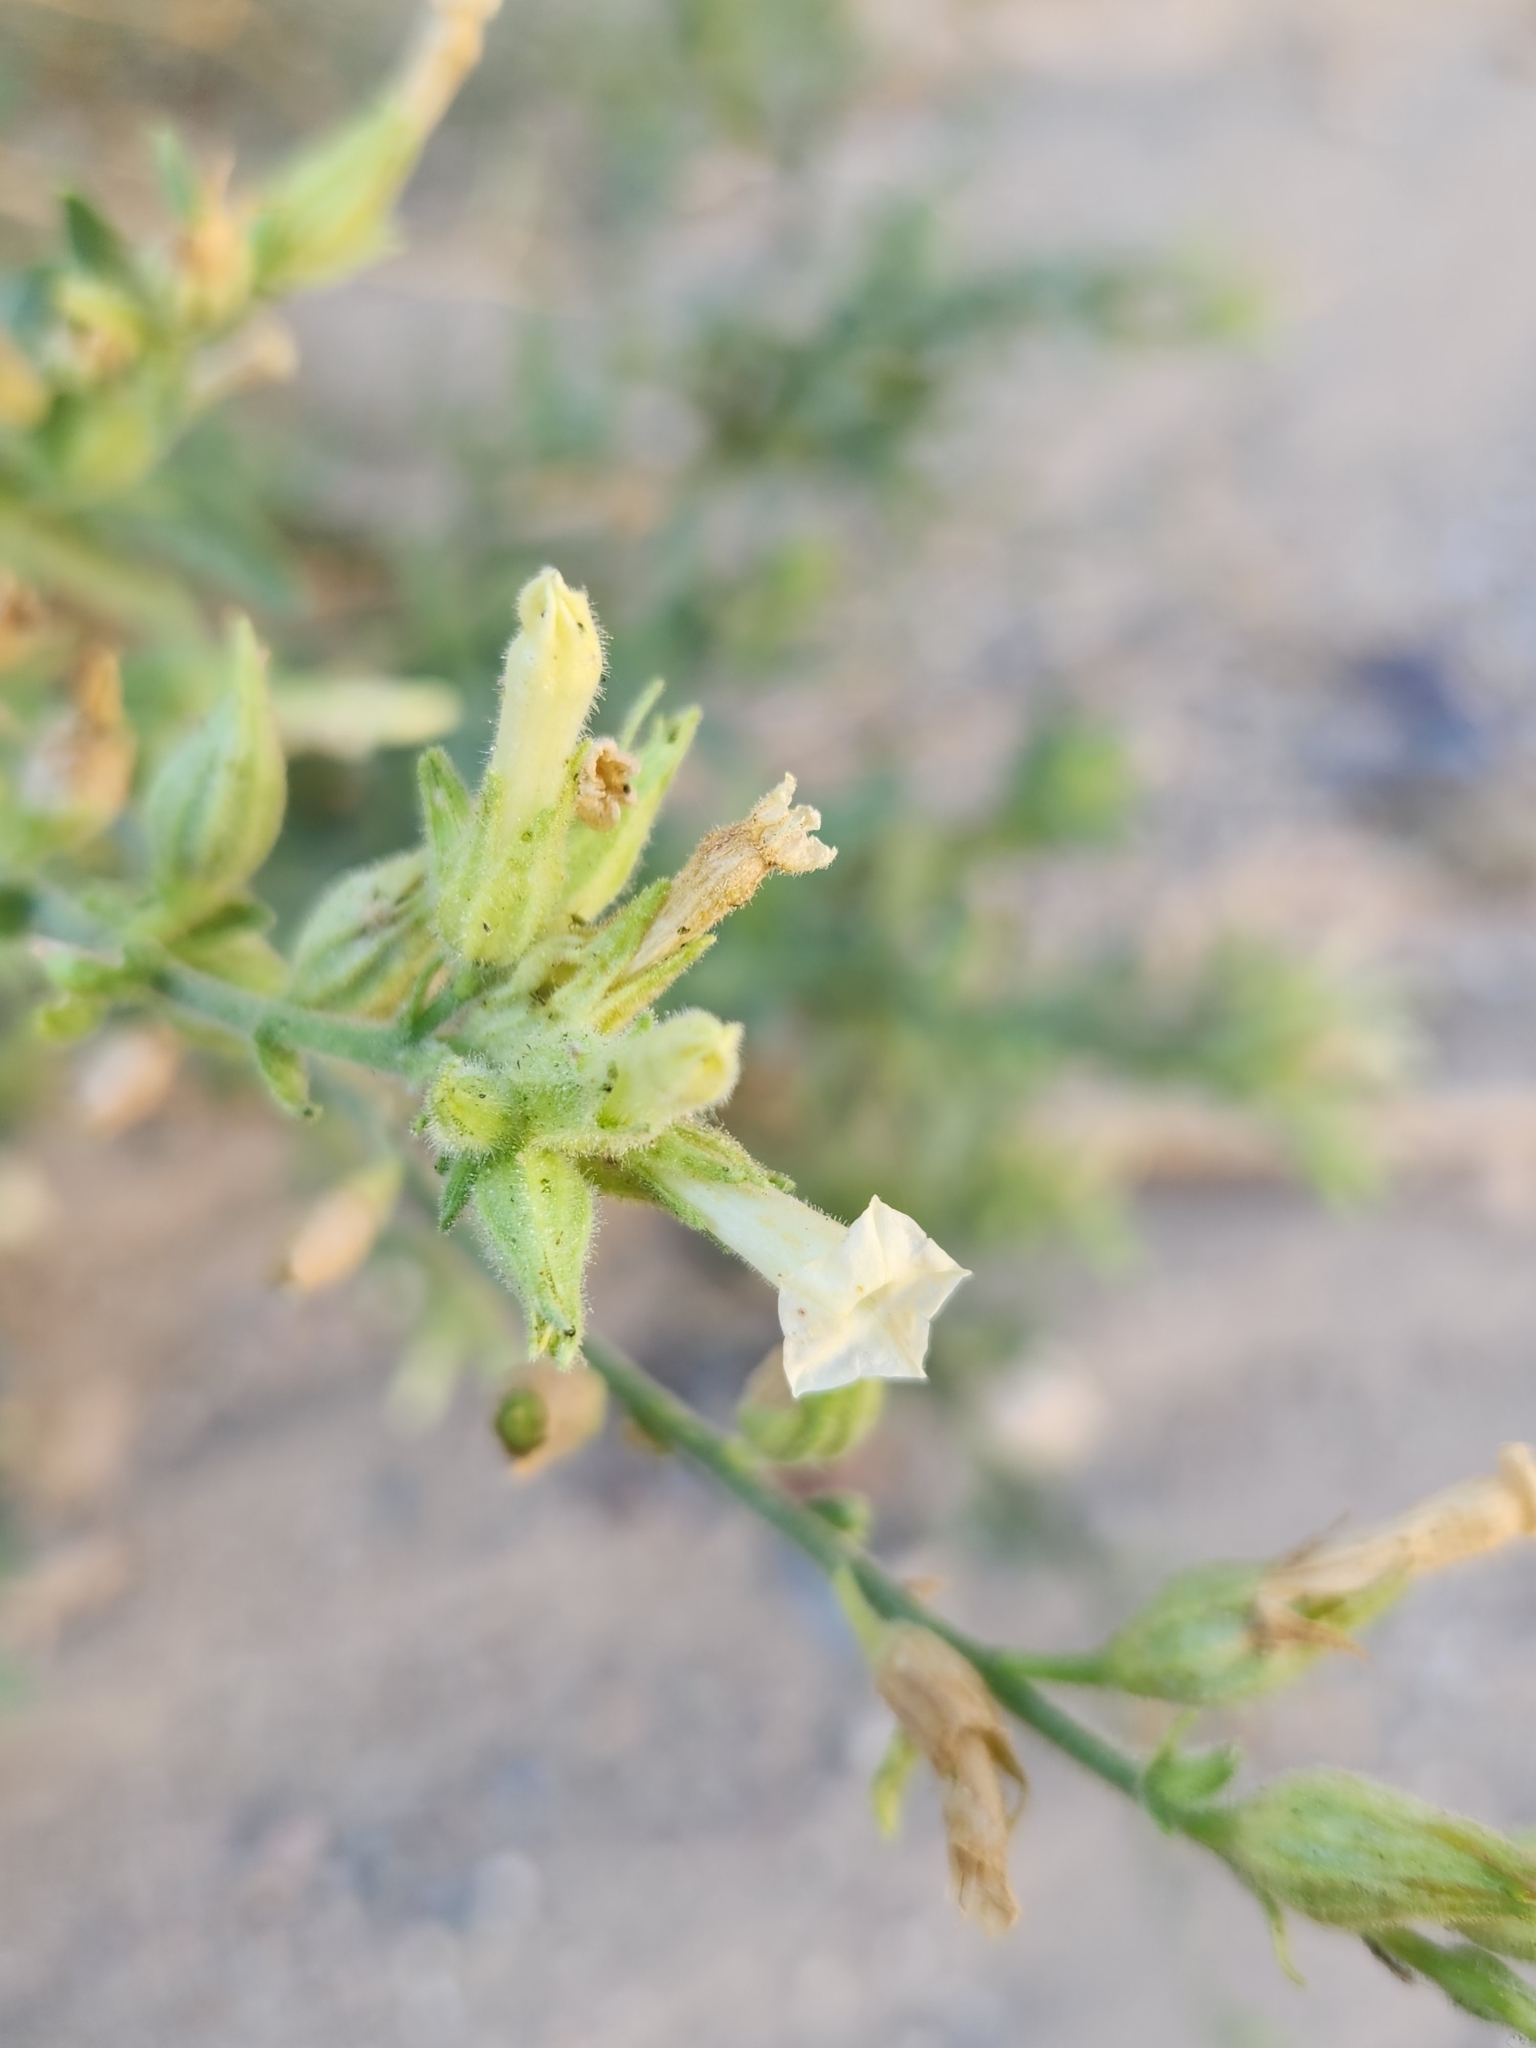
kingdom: Plantae
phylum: Tracheophyta
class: Magnoliopsida
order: Solanales
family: Solanaceae
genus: Nicotiana
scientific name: Nicotiana obtusifolia
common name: Desert tobacco
